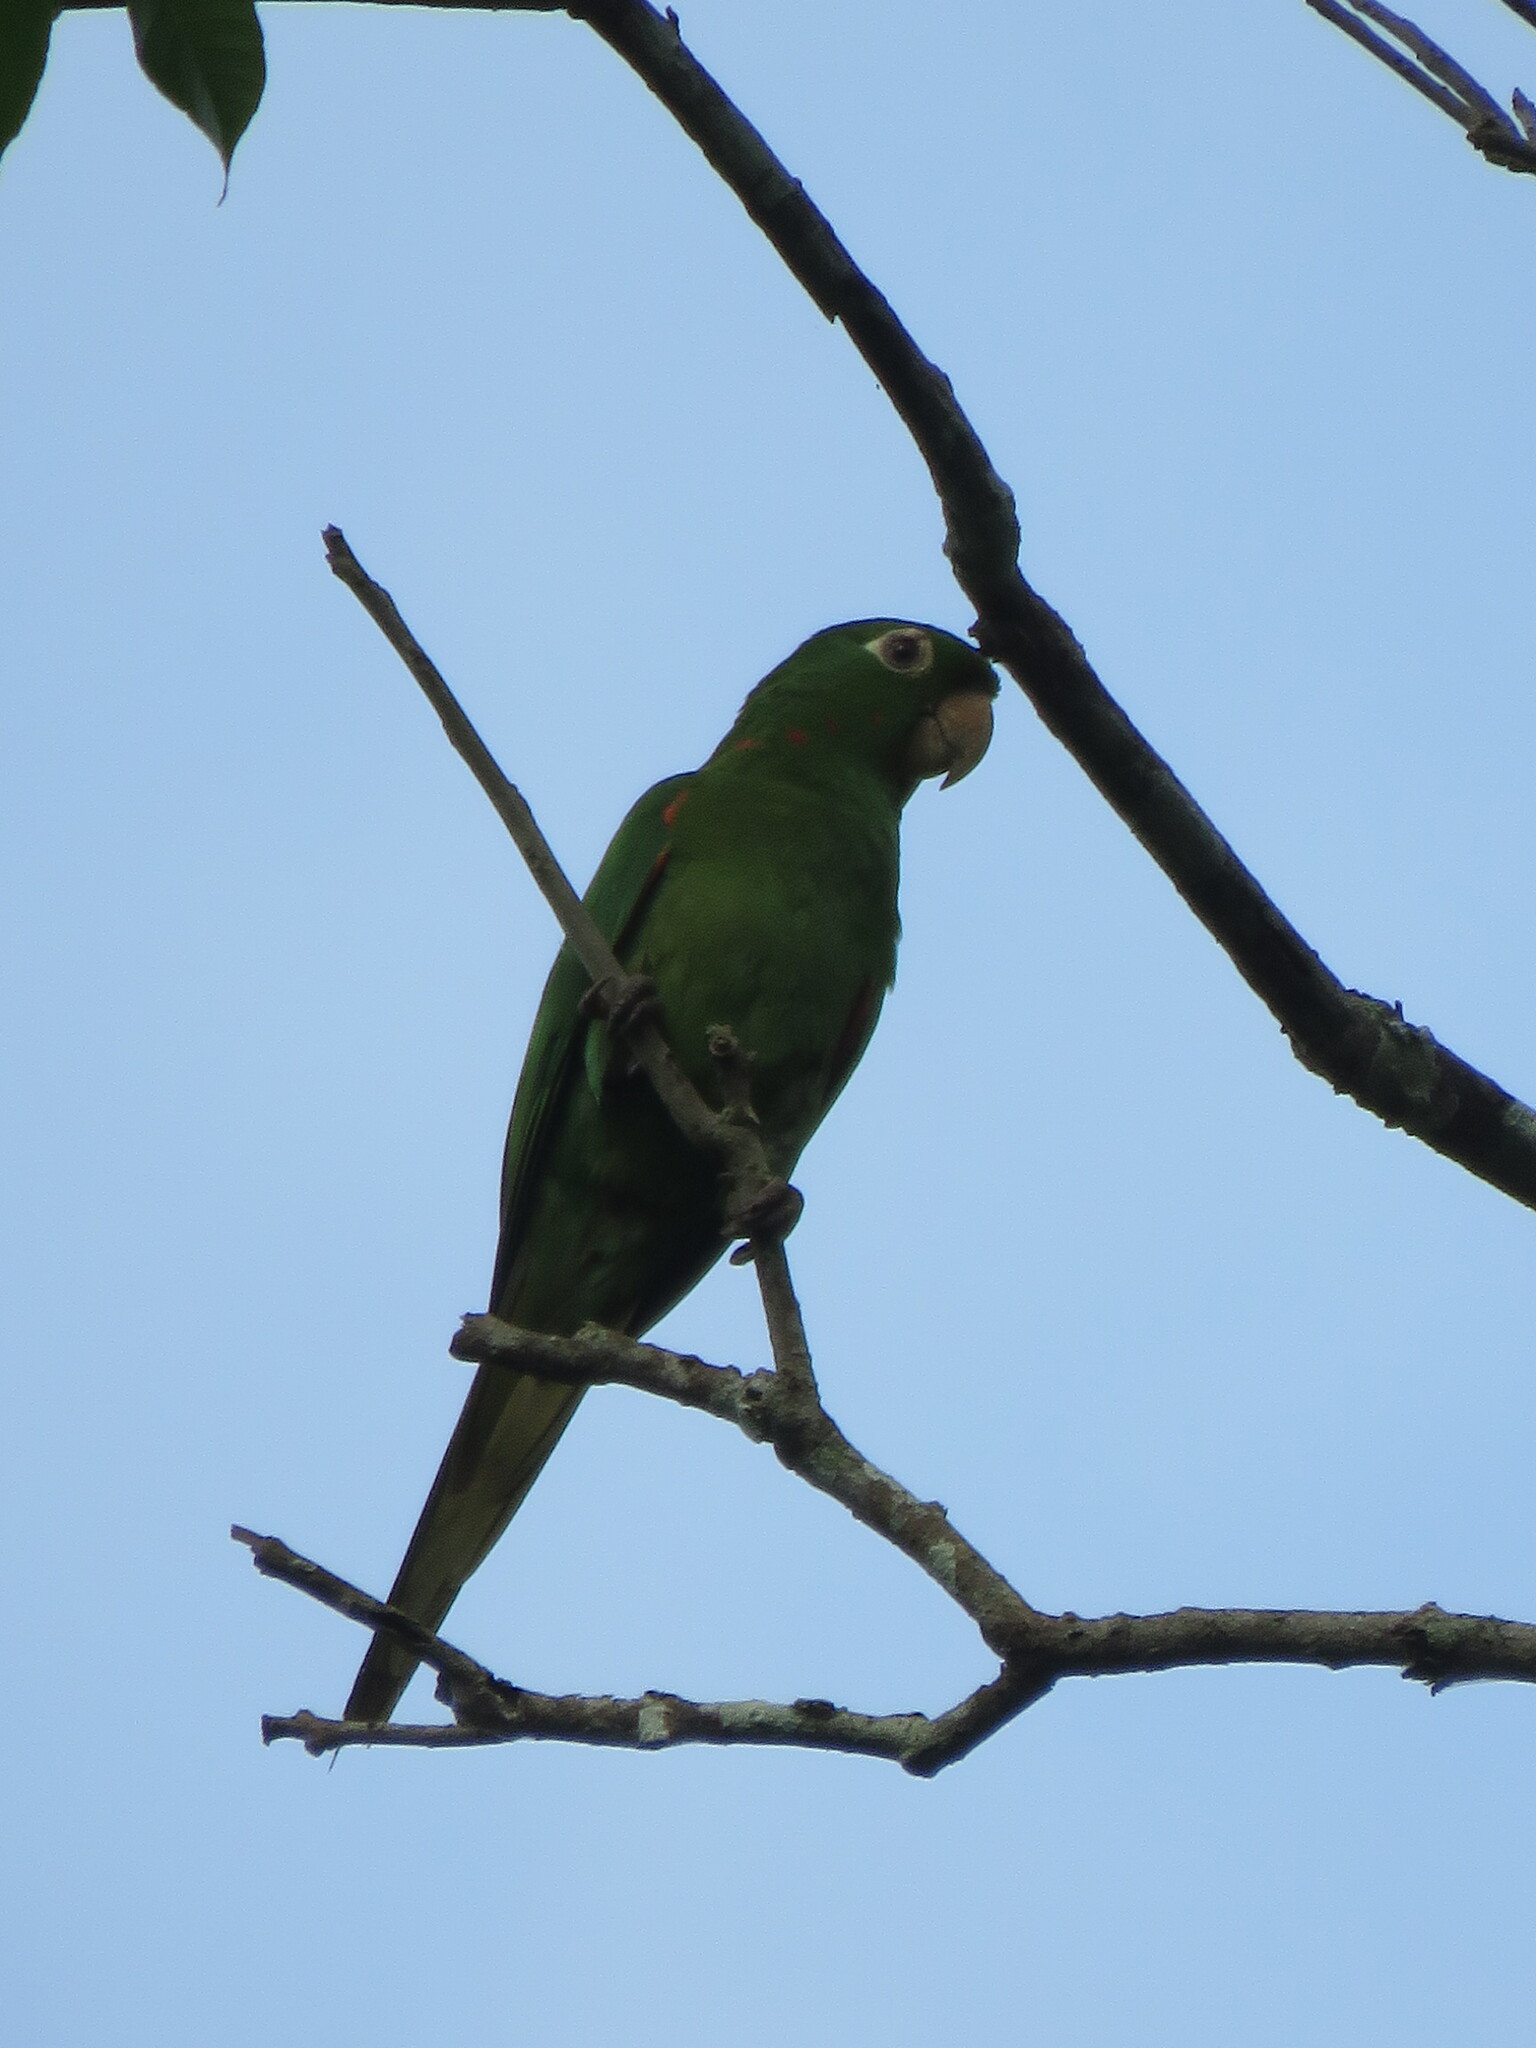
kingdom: Animalia
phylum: Chordata
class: Aves
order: Psittaciformes
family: Psittacidae
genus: Aratinga
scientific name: Aratinga leucophthalma
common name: White-eyed parakeet
